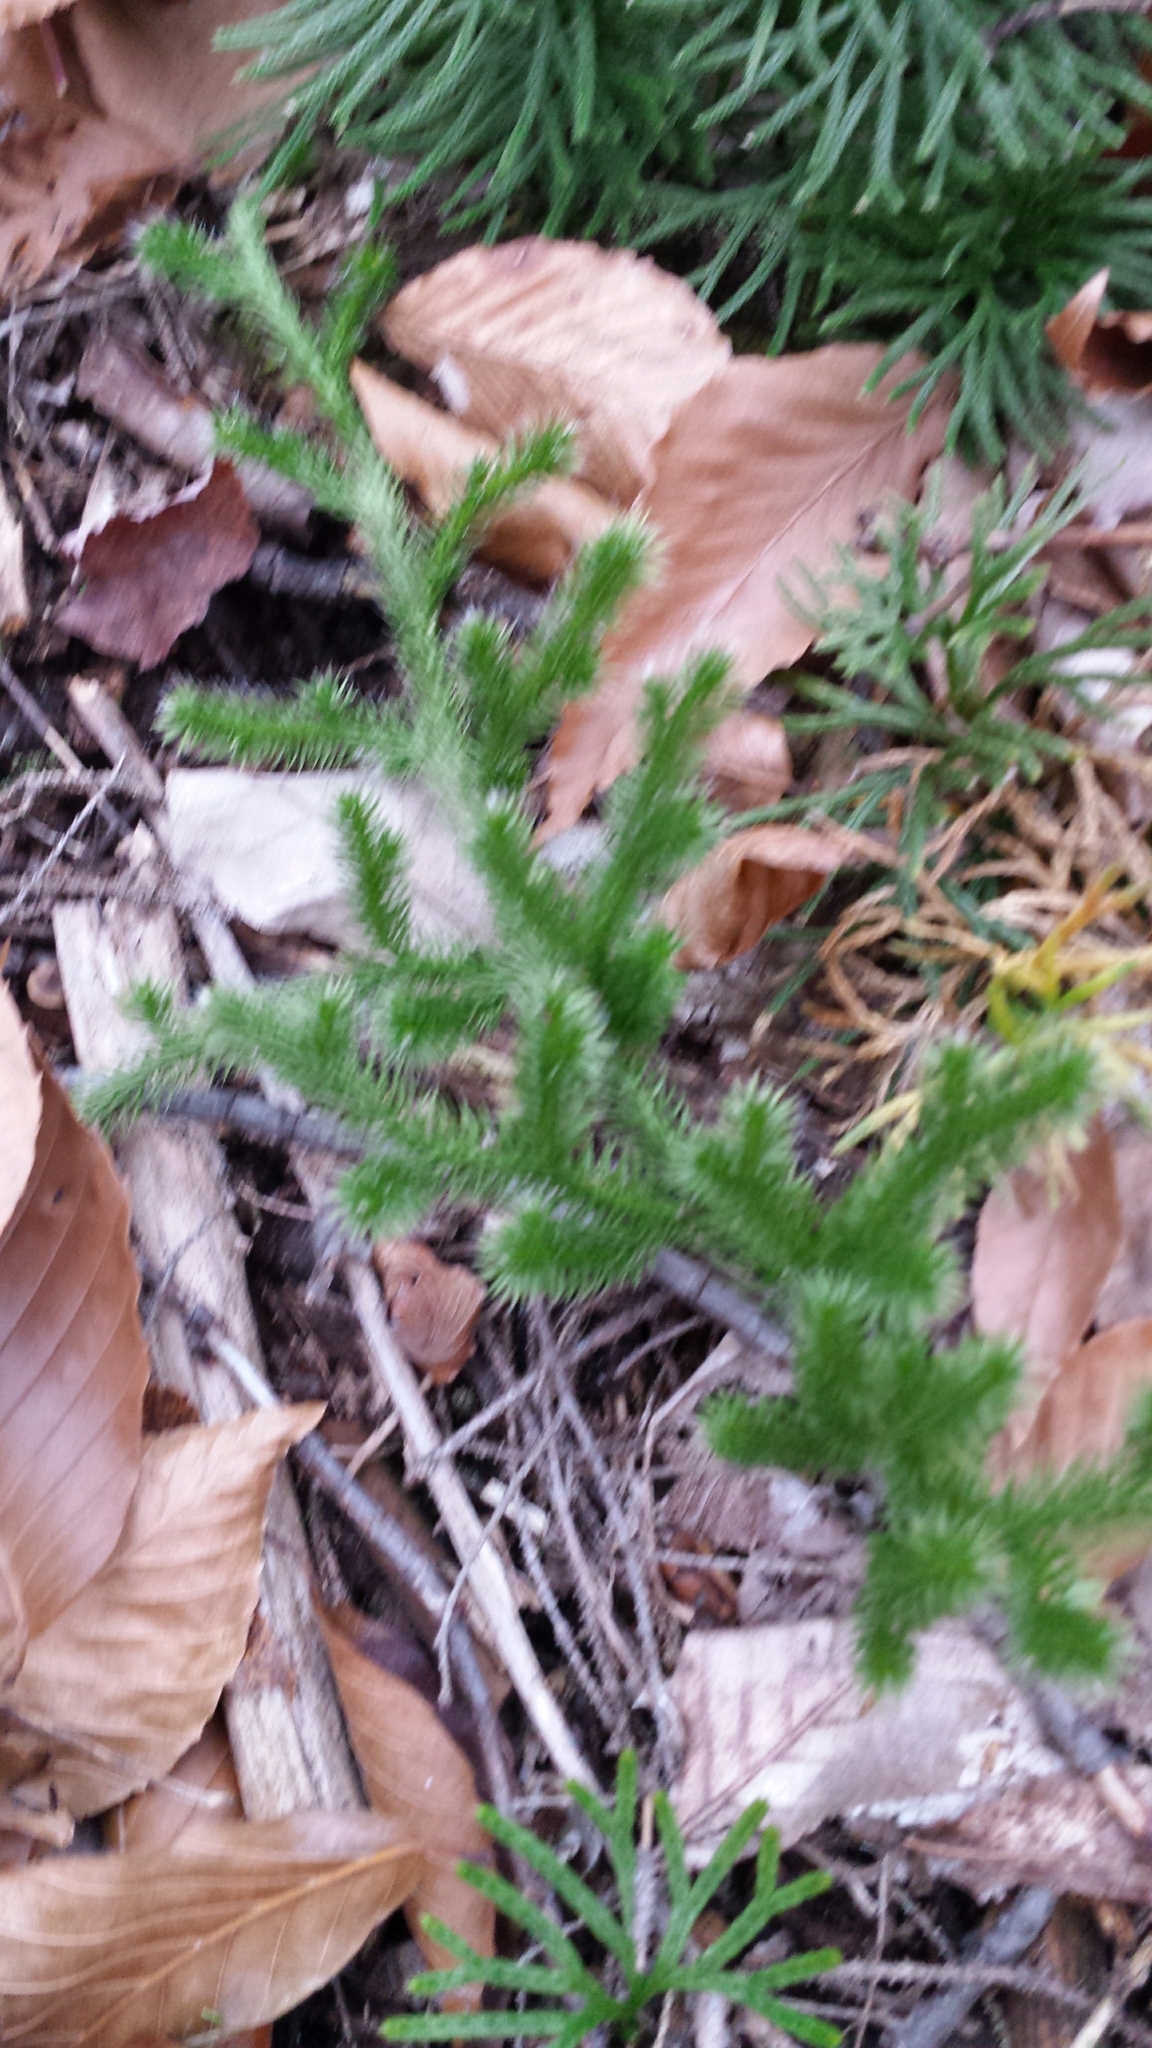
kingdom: Plantae
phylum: Tracheophyta
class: Lycopodiopsida
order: Lycopodiales
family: Lycopodiaceae
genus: Lycopodium
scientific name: Lycopodium clavatum
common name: Stag's-horn clubmoss
